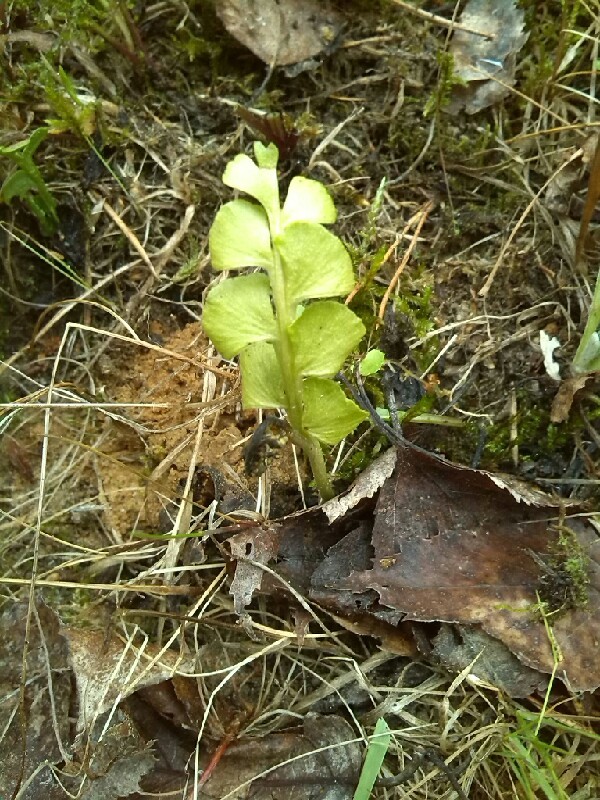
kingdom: Plantae
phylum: Tracheophyta
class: Polypodiopsida
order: Ophioglossales
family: Ophioglossaceae
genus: Botrychium
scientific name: Botrychium lunaria
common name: Moonwort
